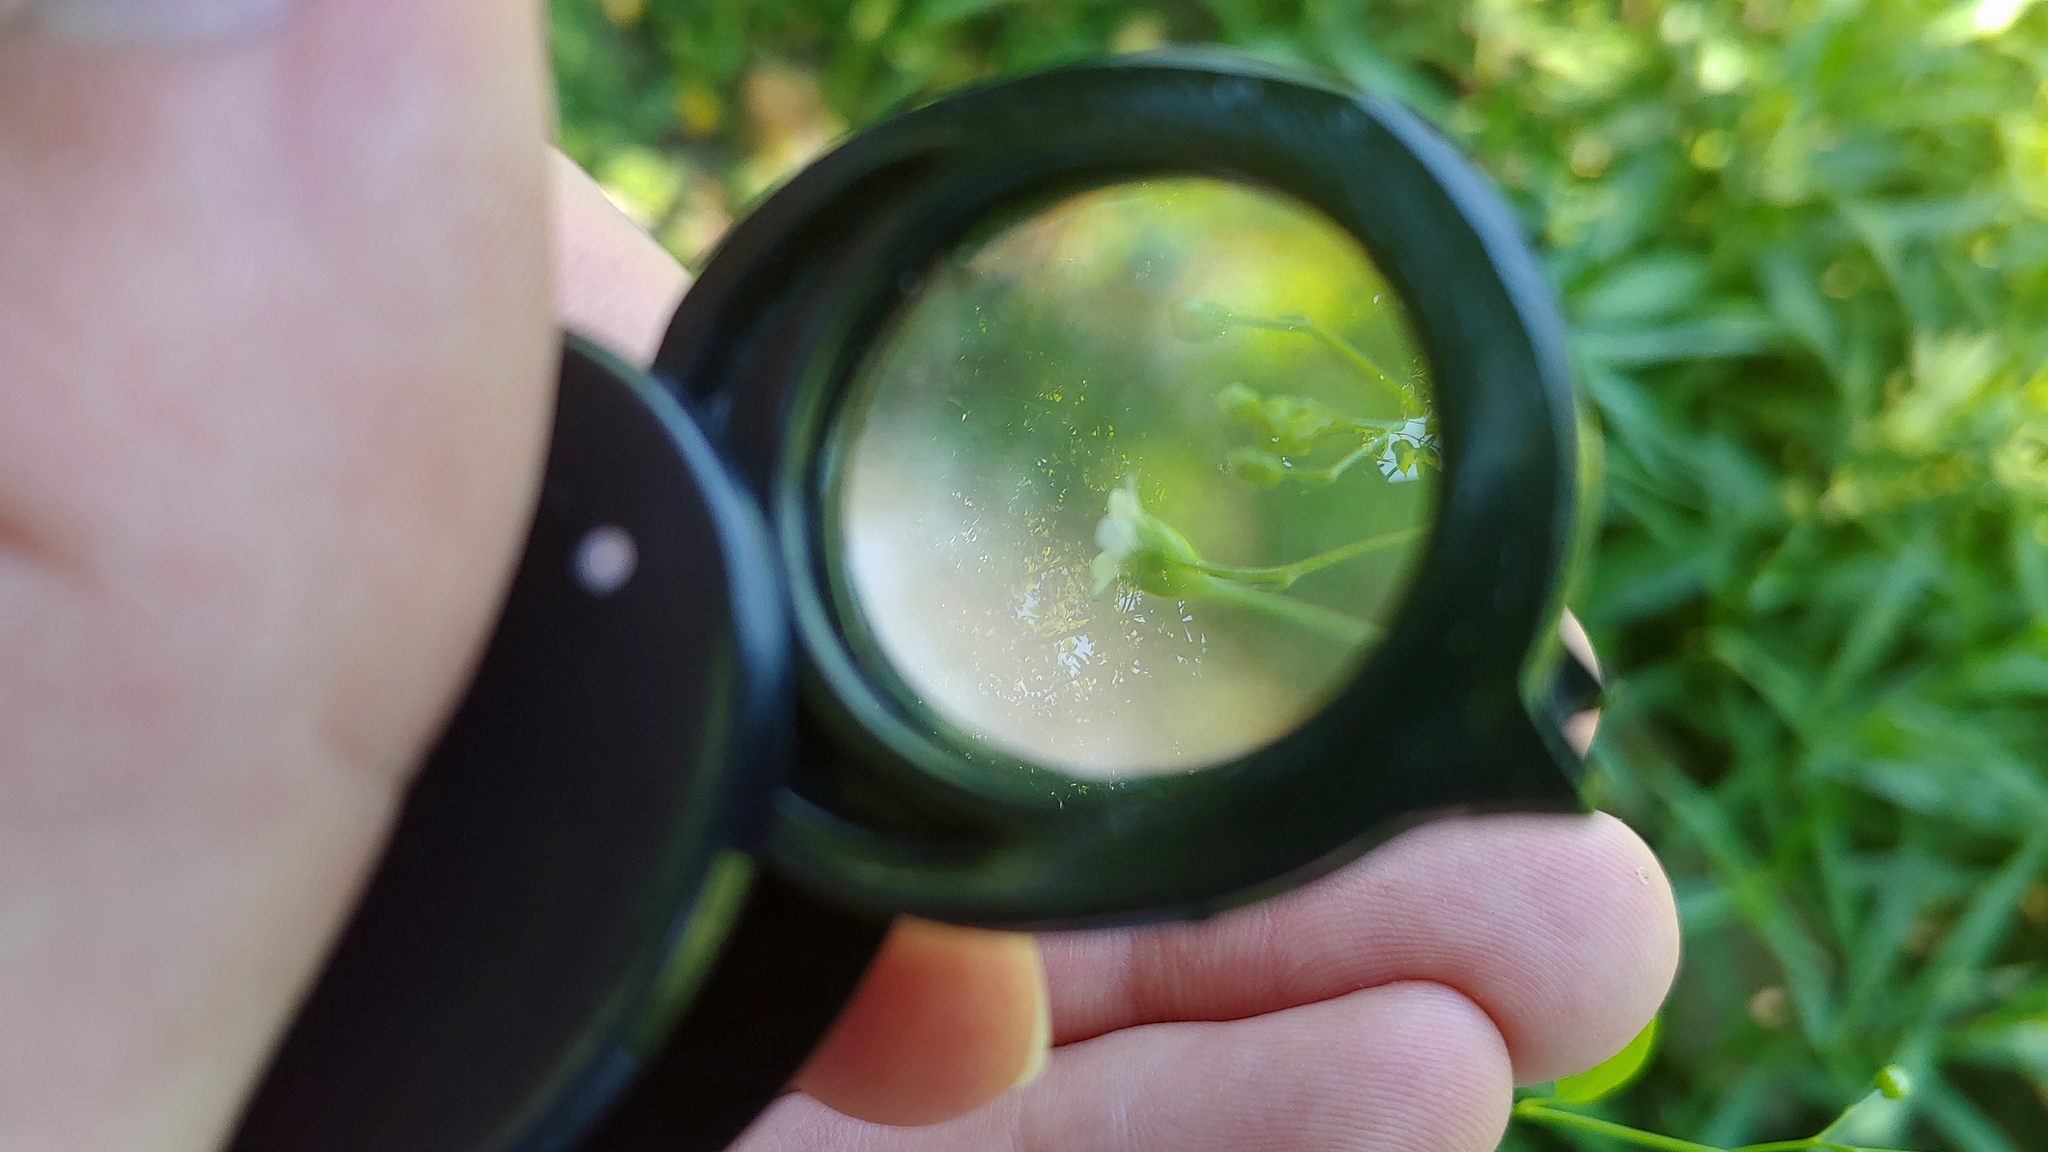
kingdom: Plantae
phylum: Tracheophyta
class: Magnoliopsida
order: Ericales
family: Primulaceae
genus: Samolus
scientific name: Samolus parviflorus
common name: False water pimpernel
